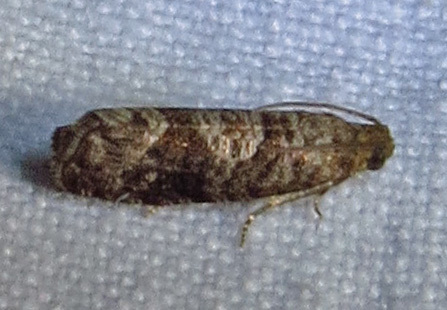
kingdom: Animalia
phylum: Arthropoda
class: Insecta
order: Lepidoptera
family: Noctuidae
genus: Aspila
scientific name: Aspila
